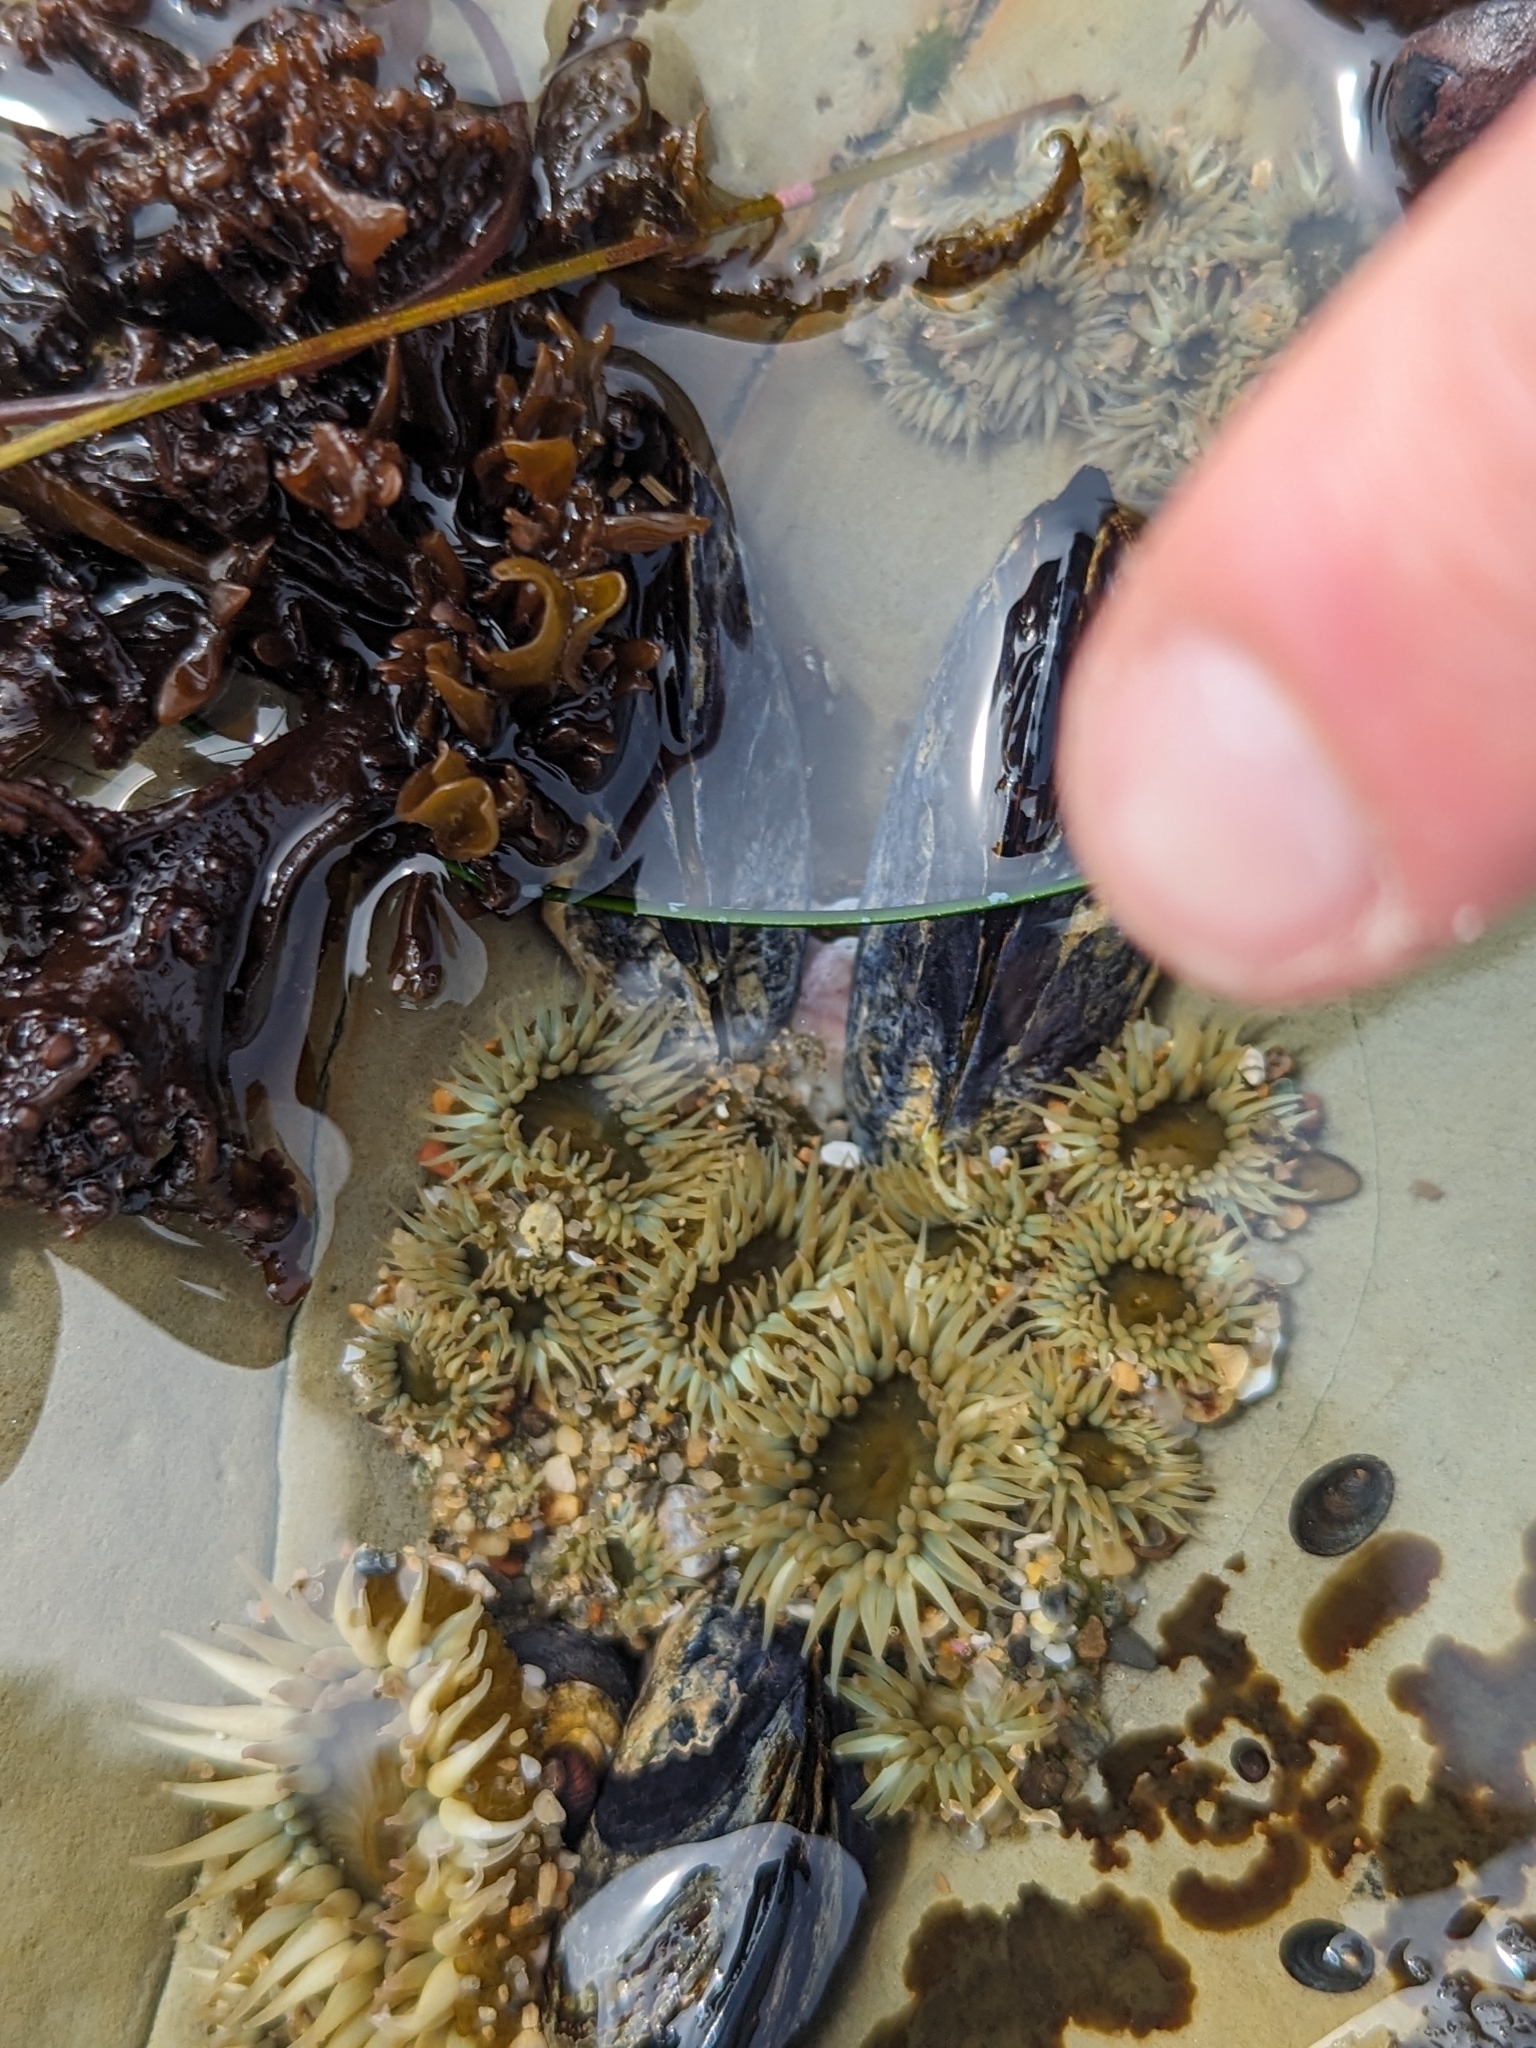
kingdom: Animalia
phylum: Cnidaria
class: Anthozoa
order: Actiniaria
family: Actiniidae
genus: Anthopleura
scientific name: Anthopleura elegantissima
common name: Clonal anemone
